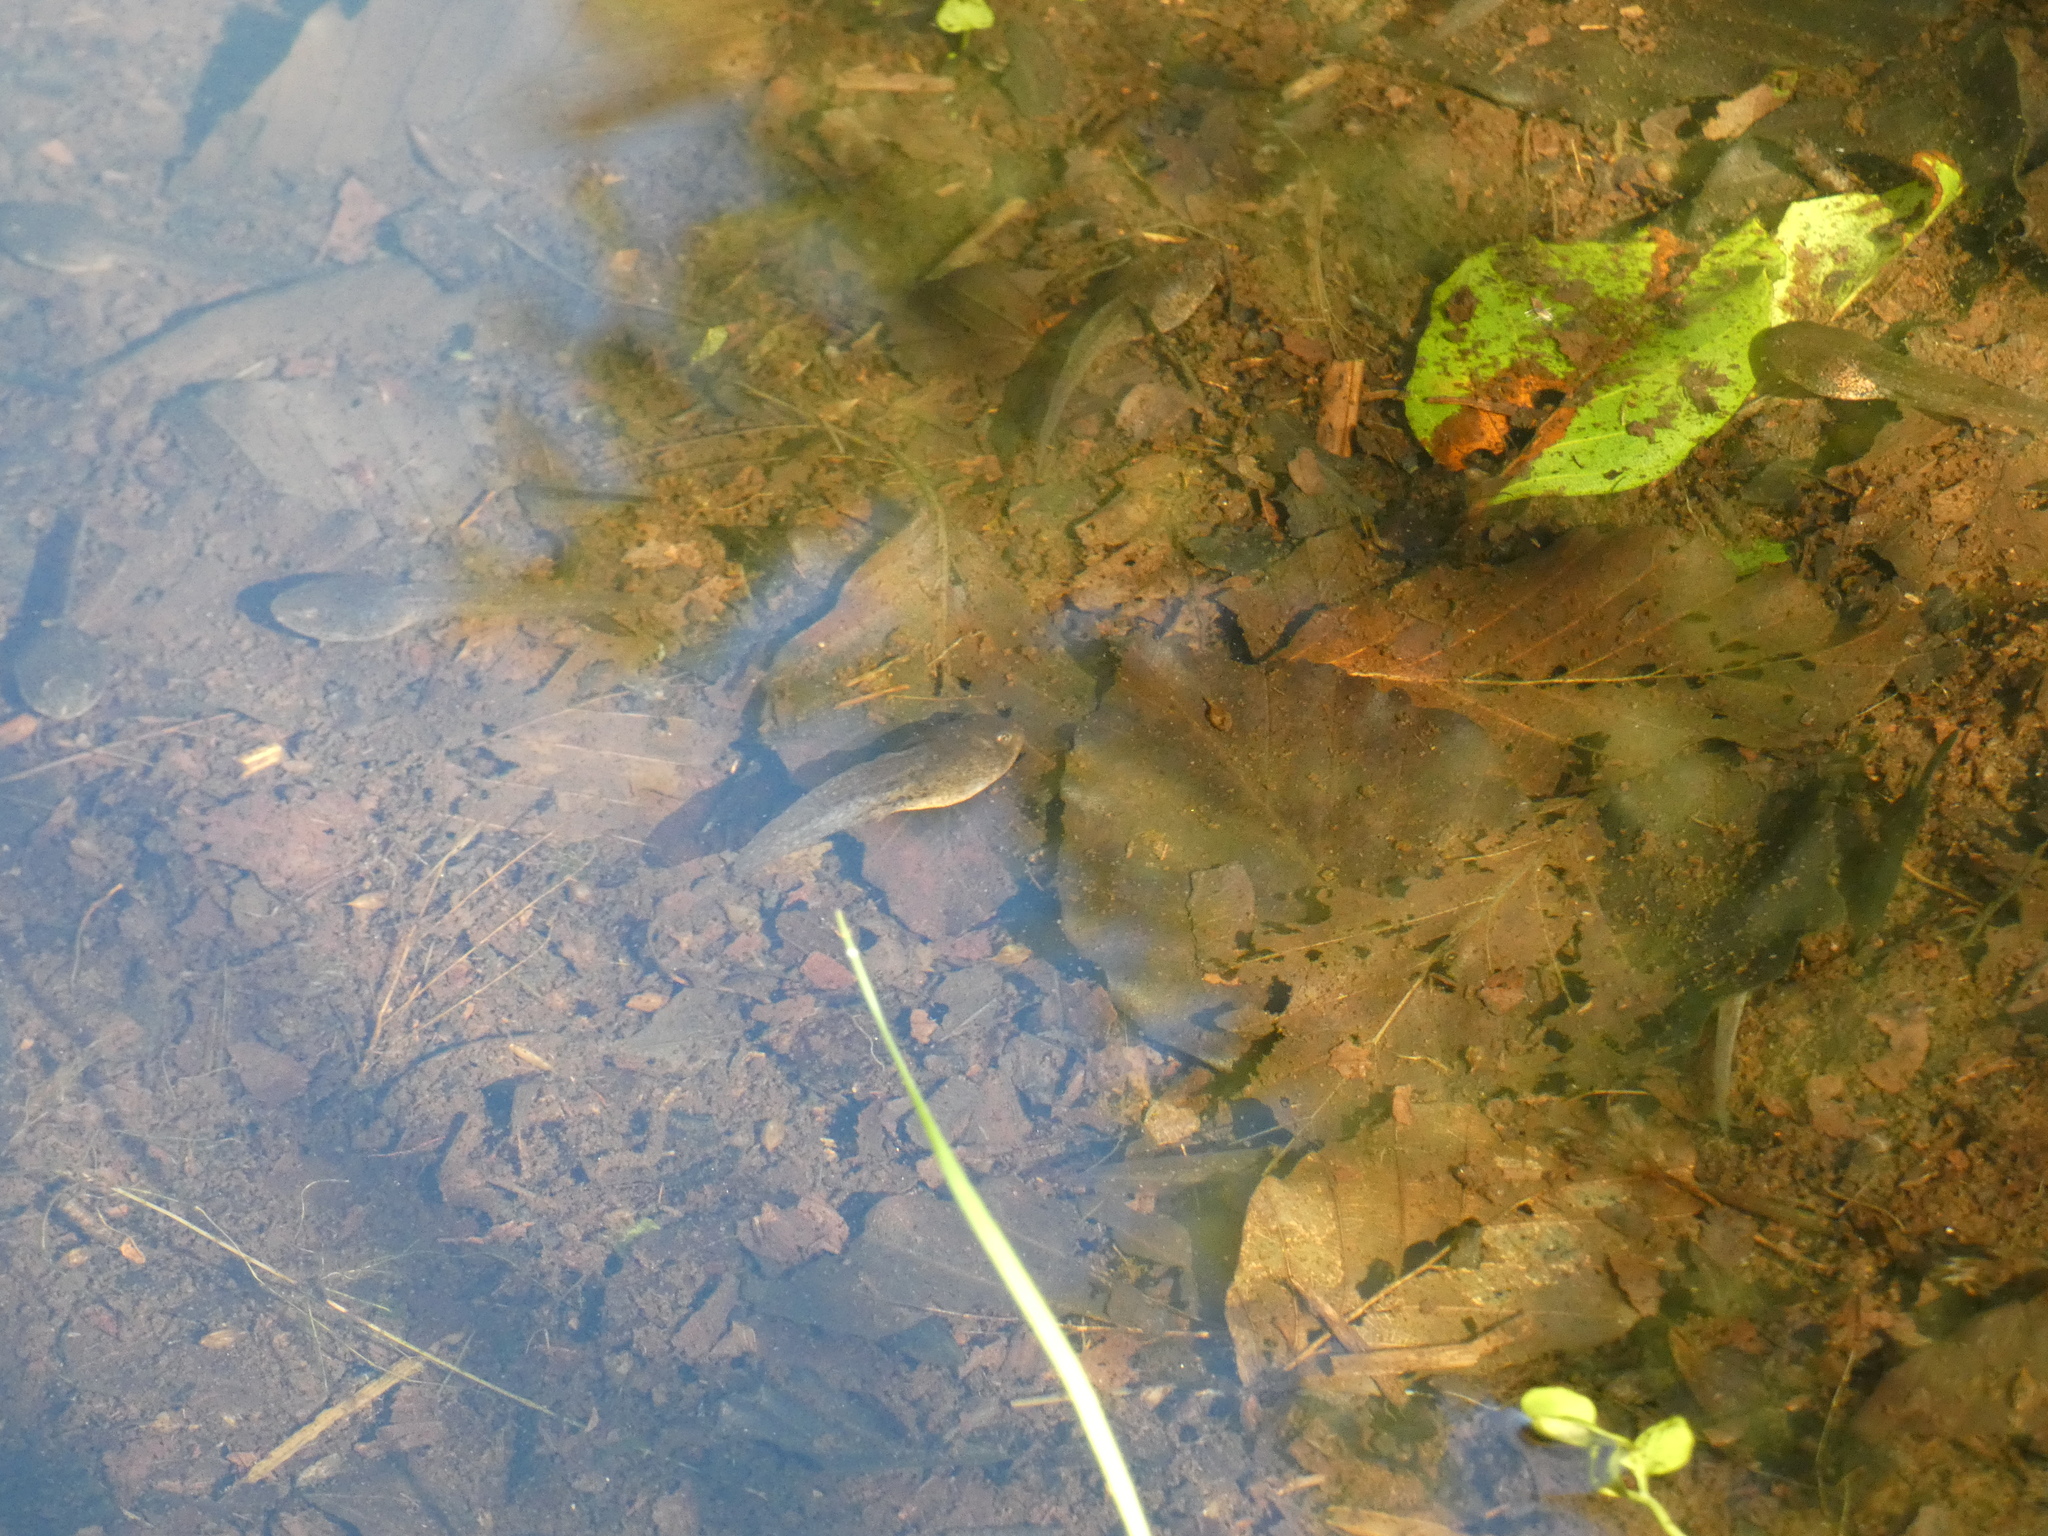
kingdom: Animalia
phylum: Chordata
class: Amphibia
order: Anura
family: Ranidae
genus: Rana
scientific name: Rana temporaria
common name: Common frog
